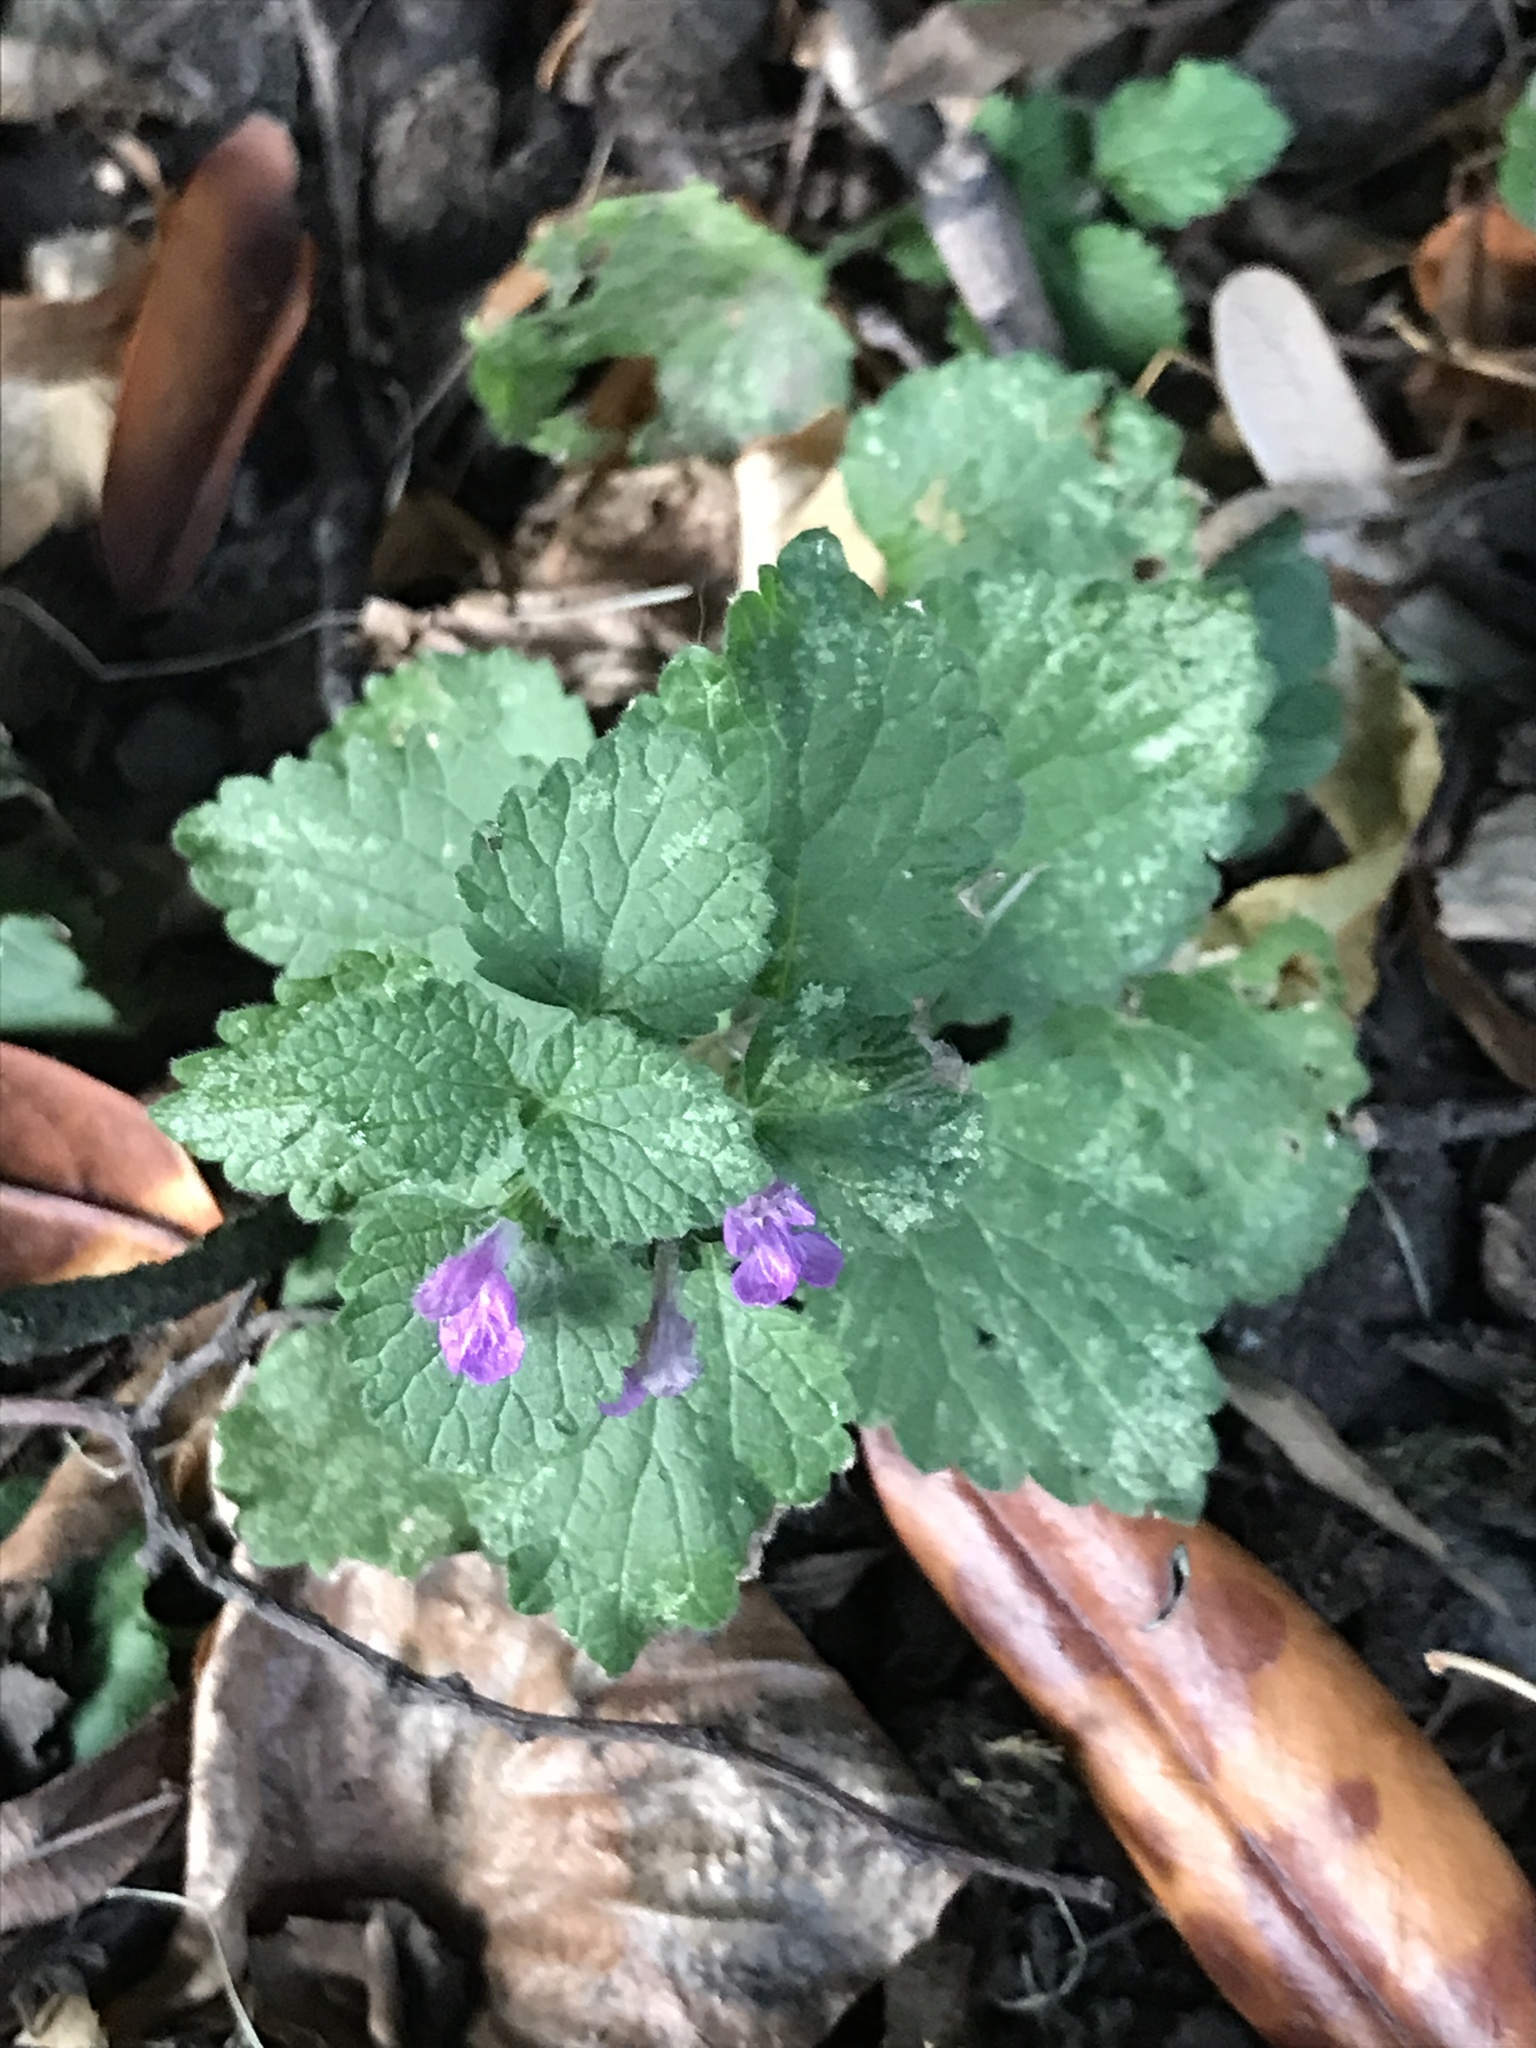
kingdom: Plantae
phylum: Tracheophyta
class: Magnoliopsida
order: Lamiales
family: Lamiaceae
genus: Ballota
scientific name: Ballota nigra
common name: Black horehound
